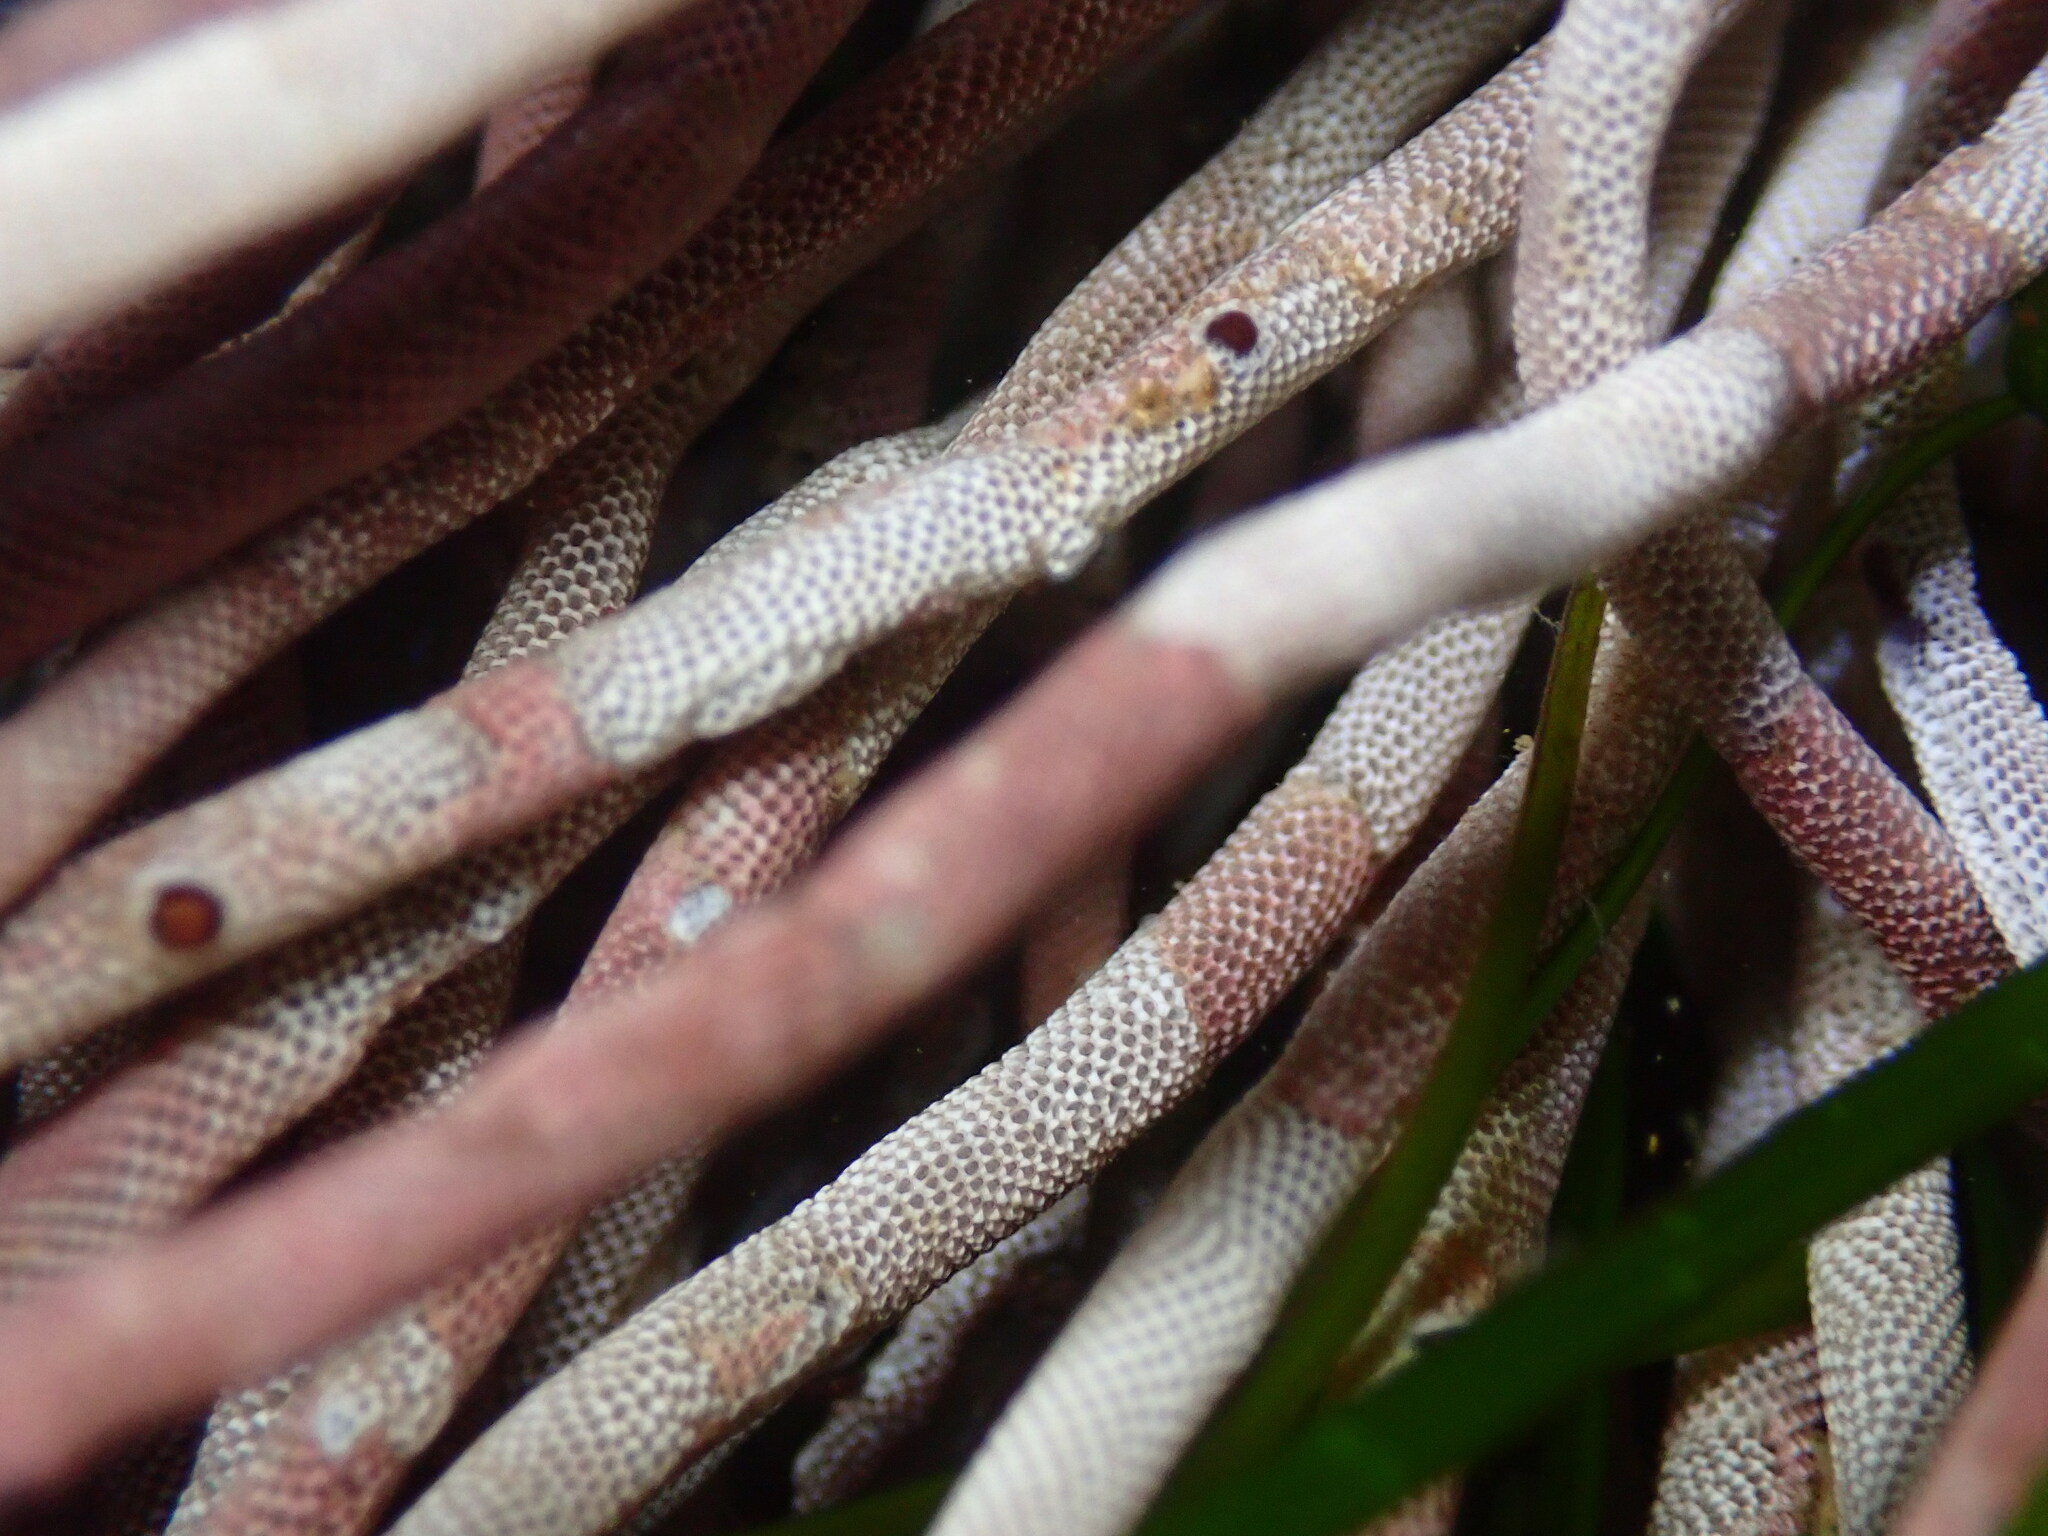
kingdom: Animalia
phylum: Bryozoa
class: Gymnolaemata
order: Cheilostomatida
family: Membraniporidae
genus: Jellyella
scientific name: Jellyella tuberculata
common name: Sargassum bryozoan
